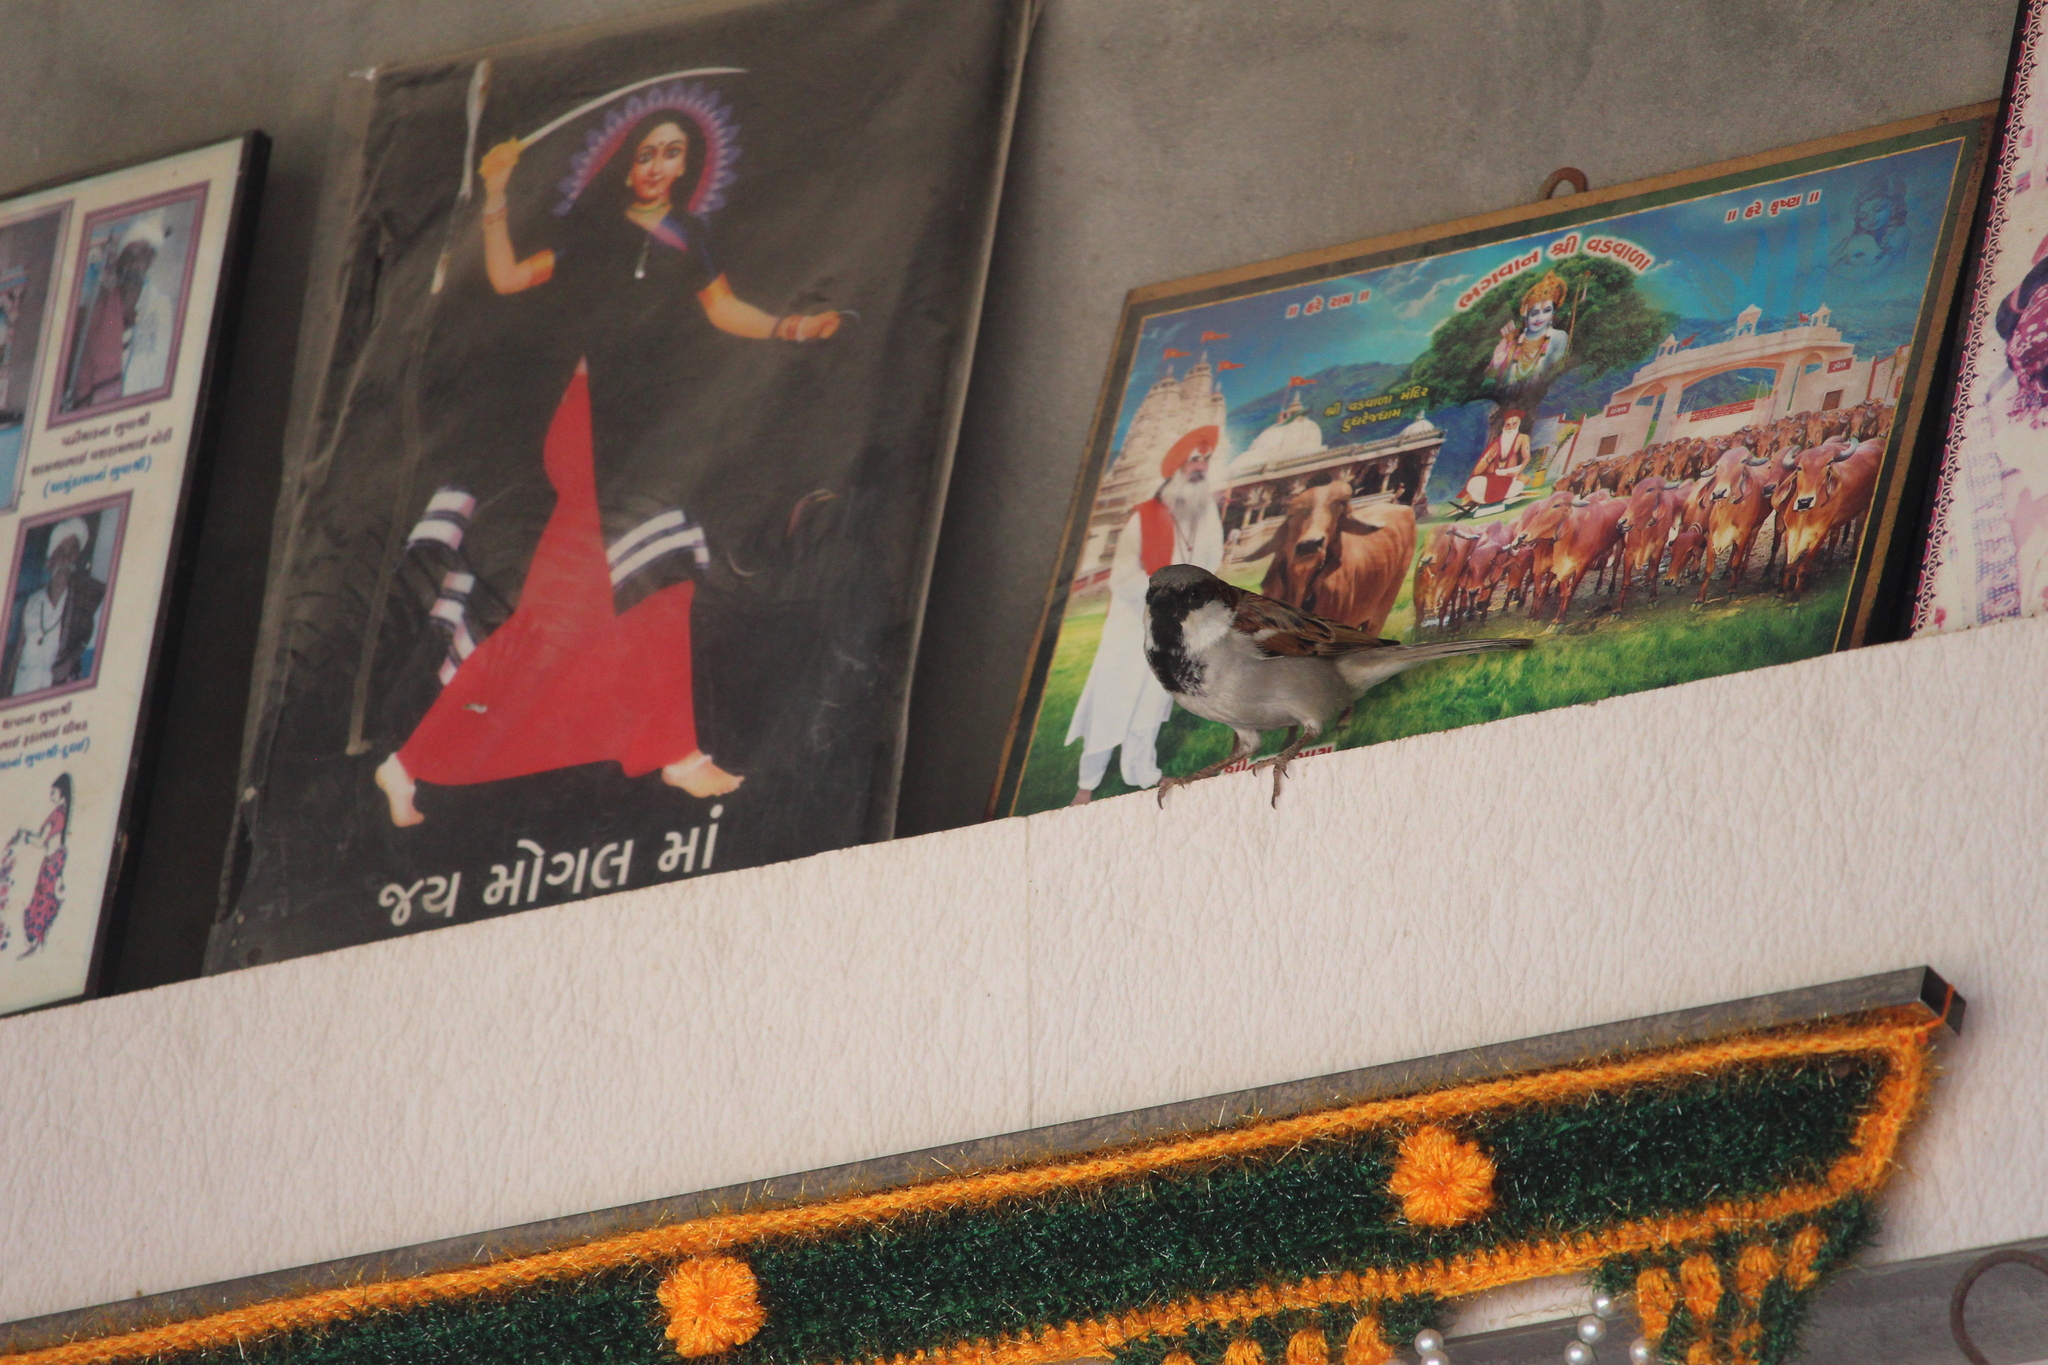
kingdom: Animalia
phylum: Chordata
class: Aves
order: Passeriformes
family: Passeridae
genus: Passer
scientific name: Passer domesticus
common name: House sparrow
